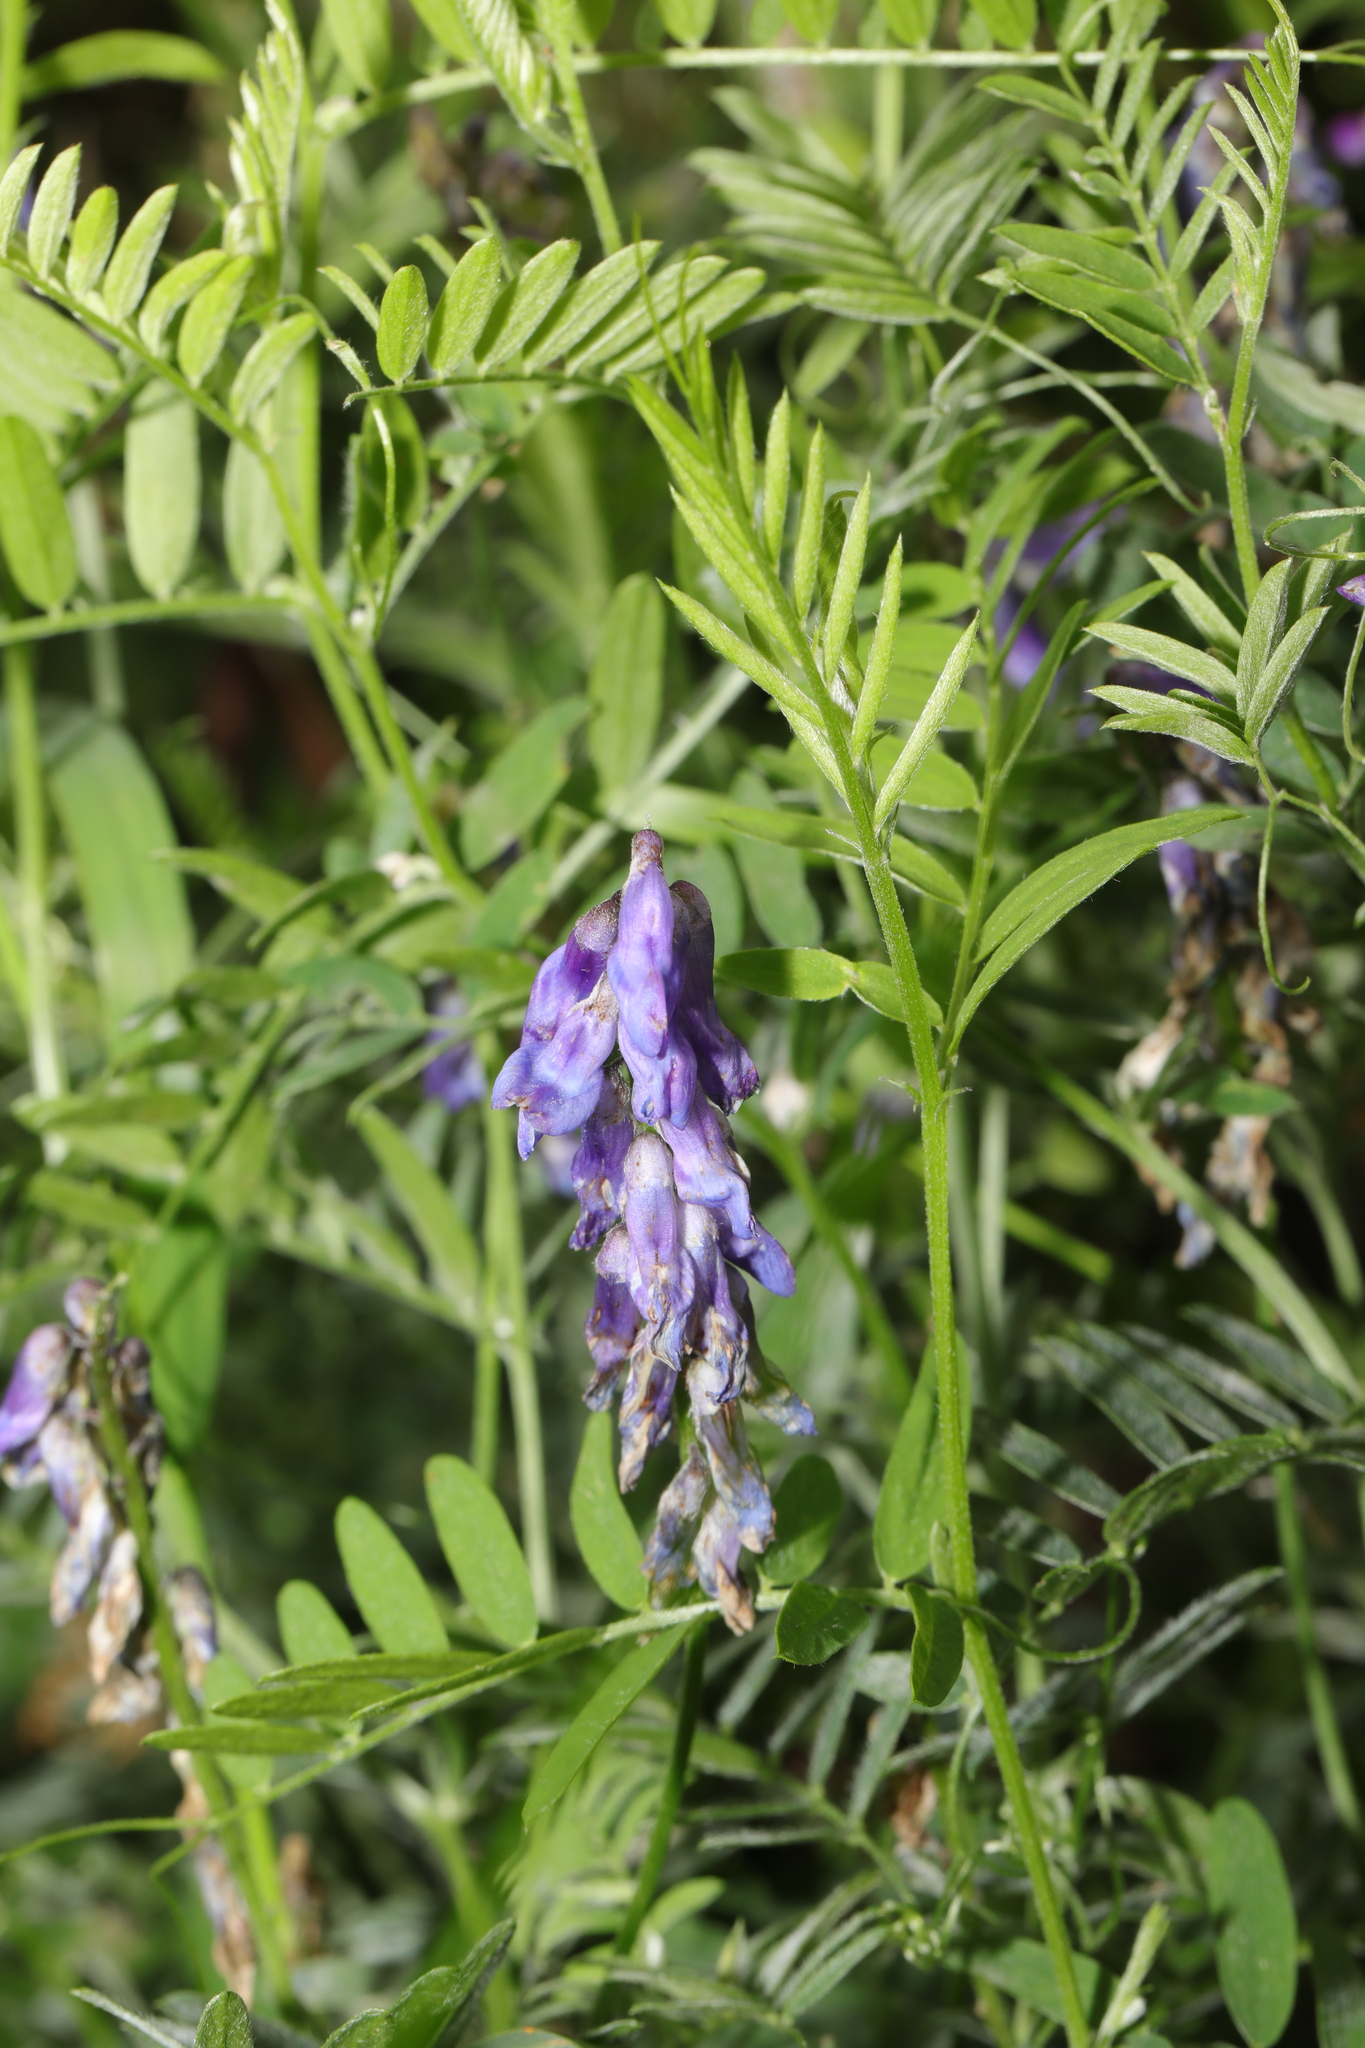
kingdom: Plantae
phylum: Tracheophyta
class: Magnoliopsida
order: Fabales
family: Fabaceae
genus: Vicia
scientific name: Vicia cracca
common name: Bird vetch
